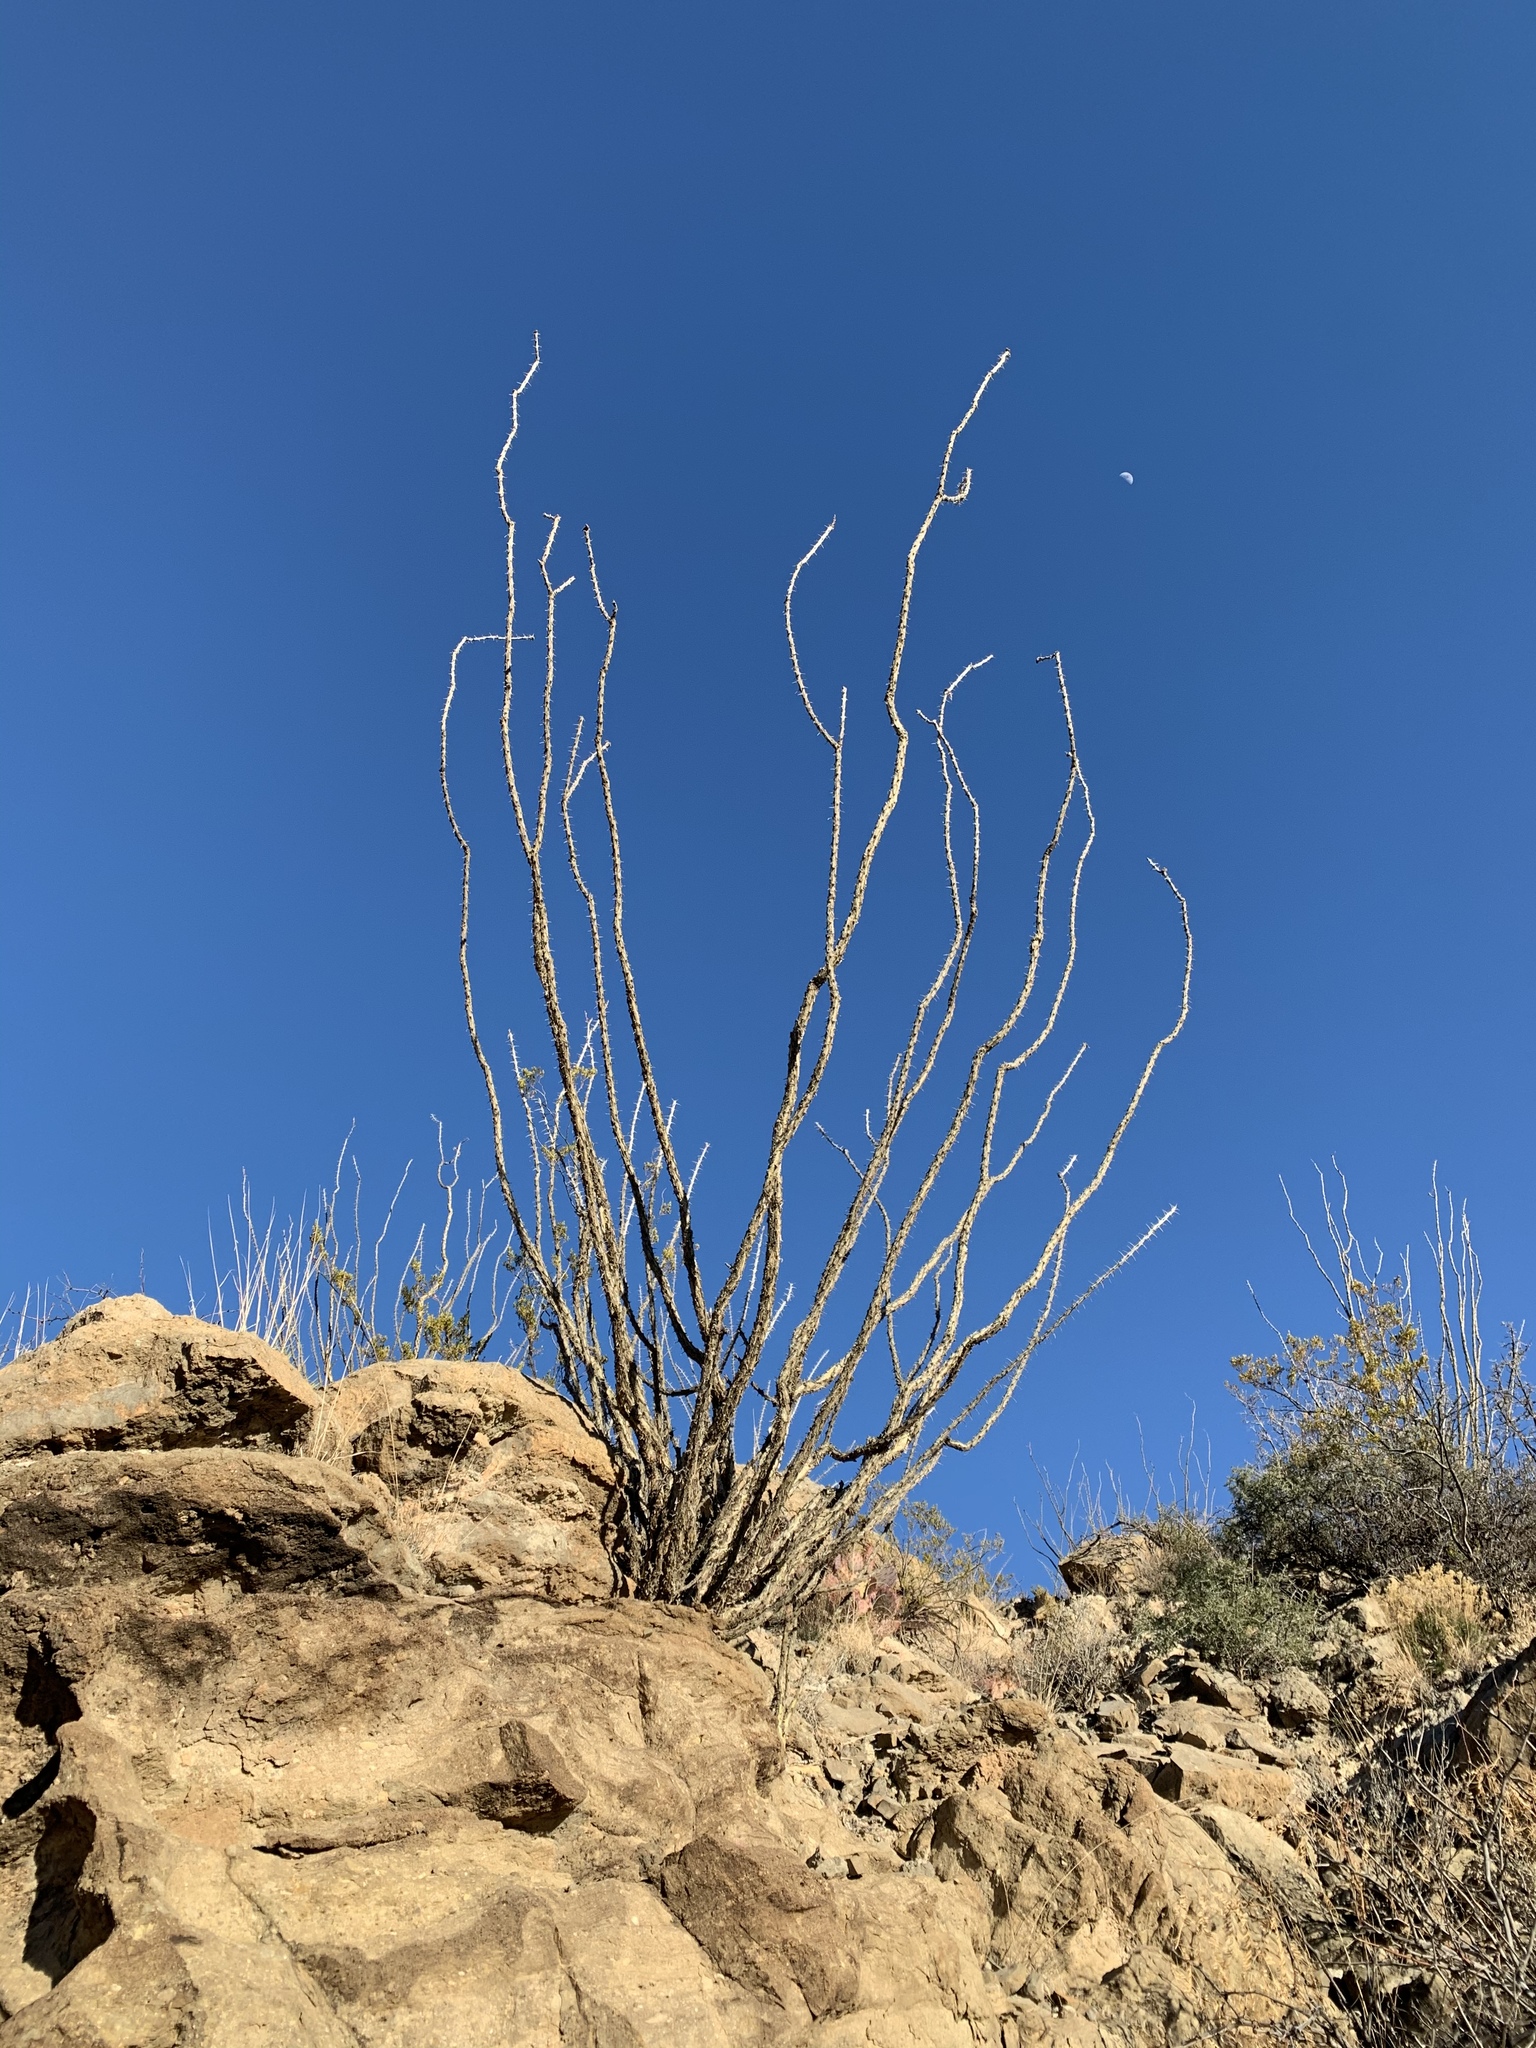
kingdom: Plantae
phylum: Tracheophyta
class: Magnoliopsida
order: Ericales
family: Fouquieriaceae
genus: Fouquieria
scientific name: Fouquieria splendens
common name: Vine-cactus
